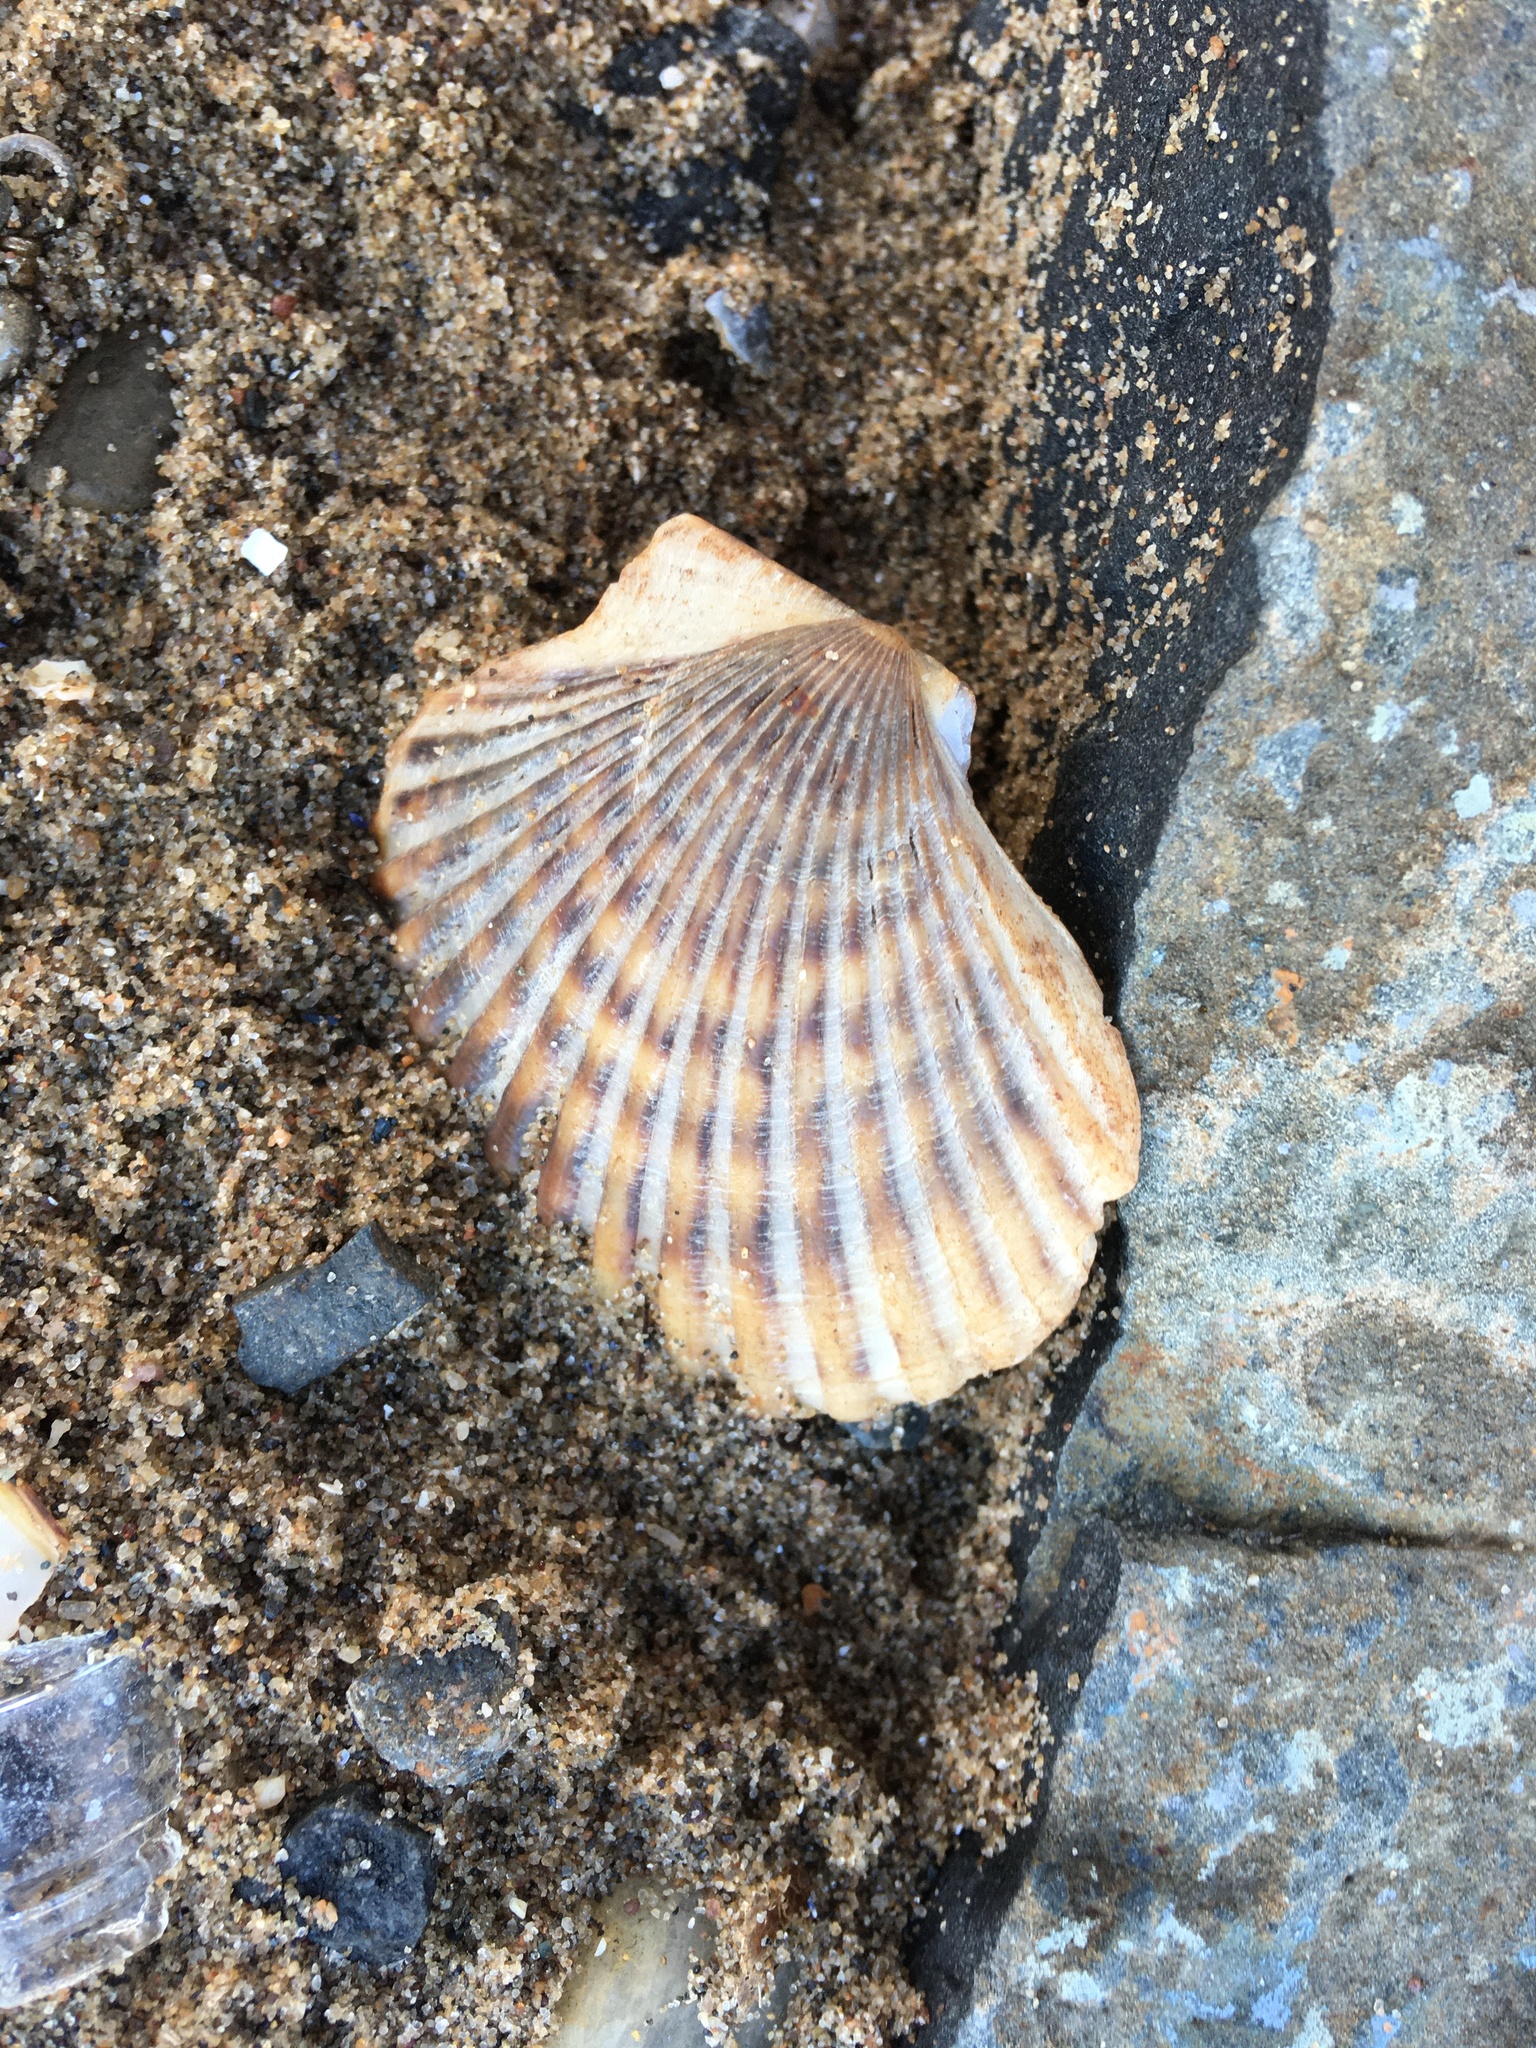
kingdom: Animalia
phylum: Mollusca
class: Bivalvia
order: Pectinida
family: Pectinidae
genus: Argopecten
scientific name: Argopecten irradians
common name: Atlantic bay scallop
